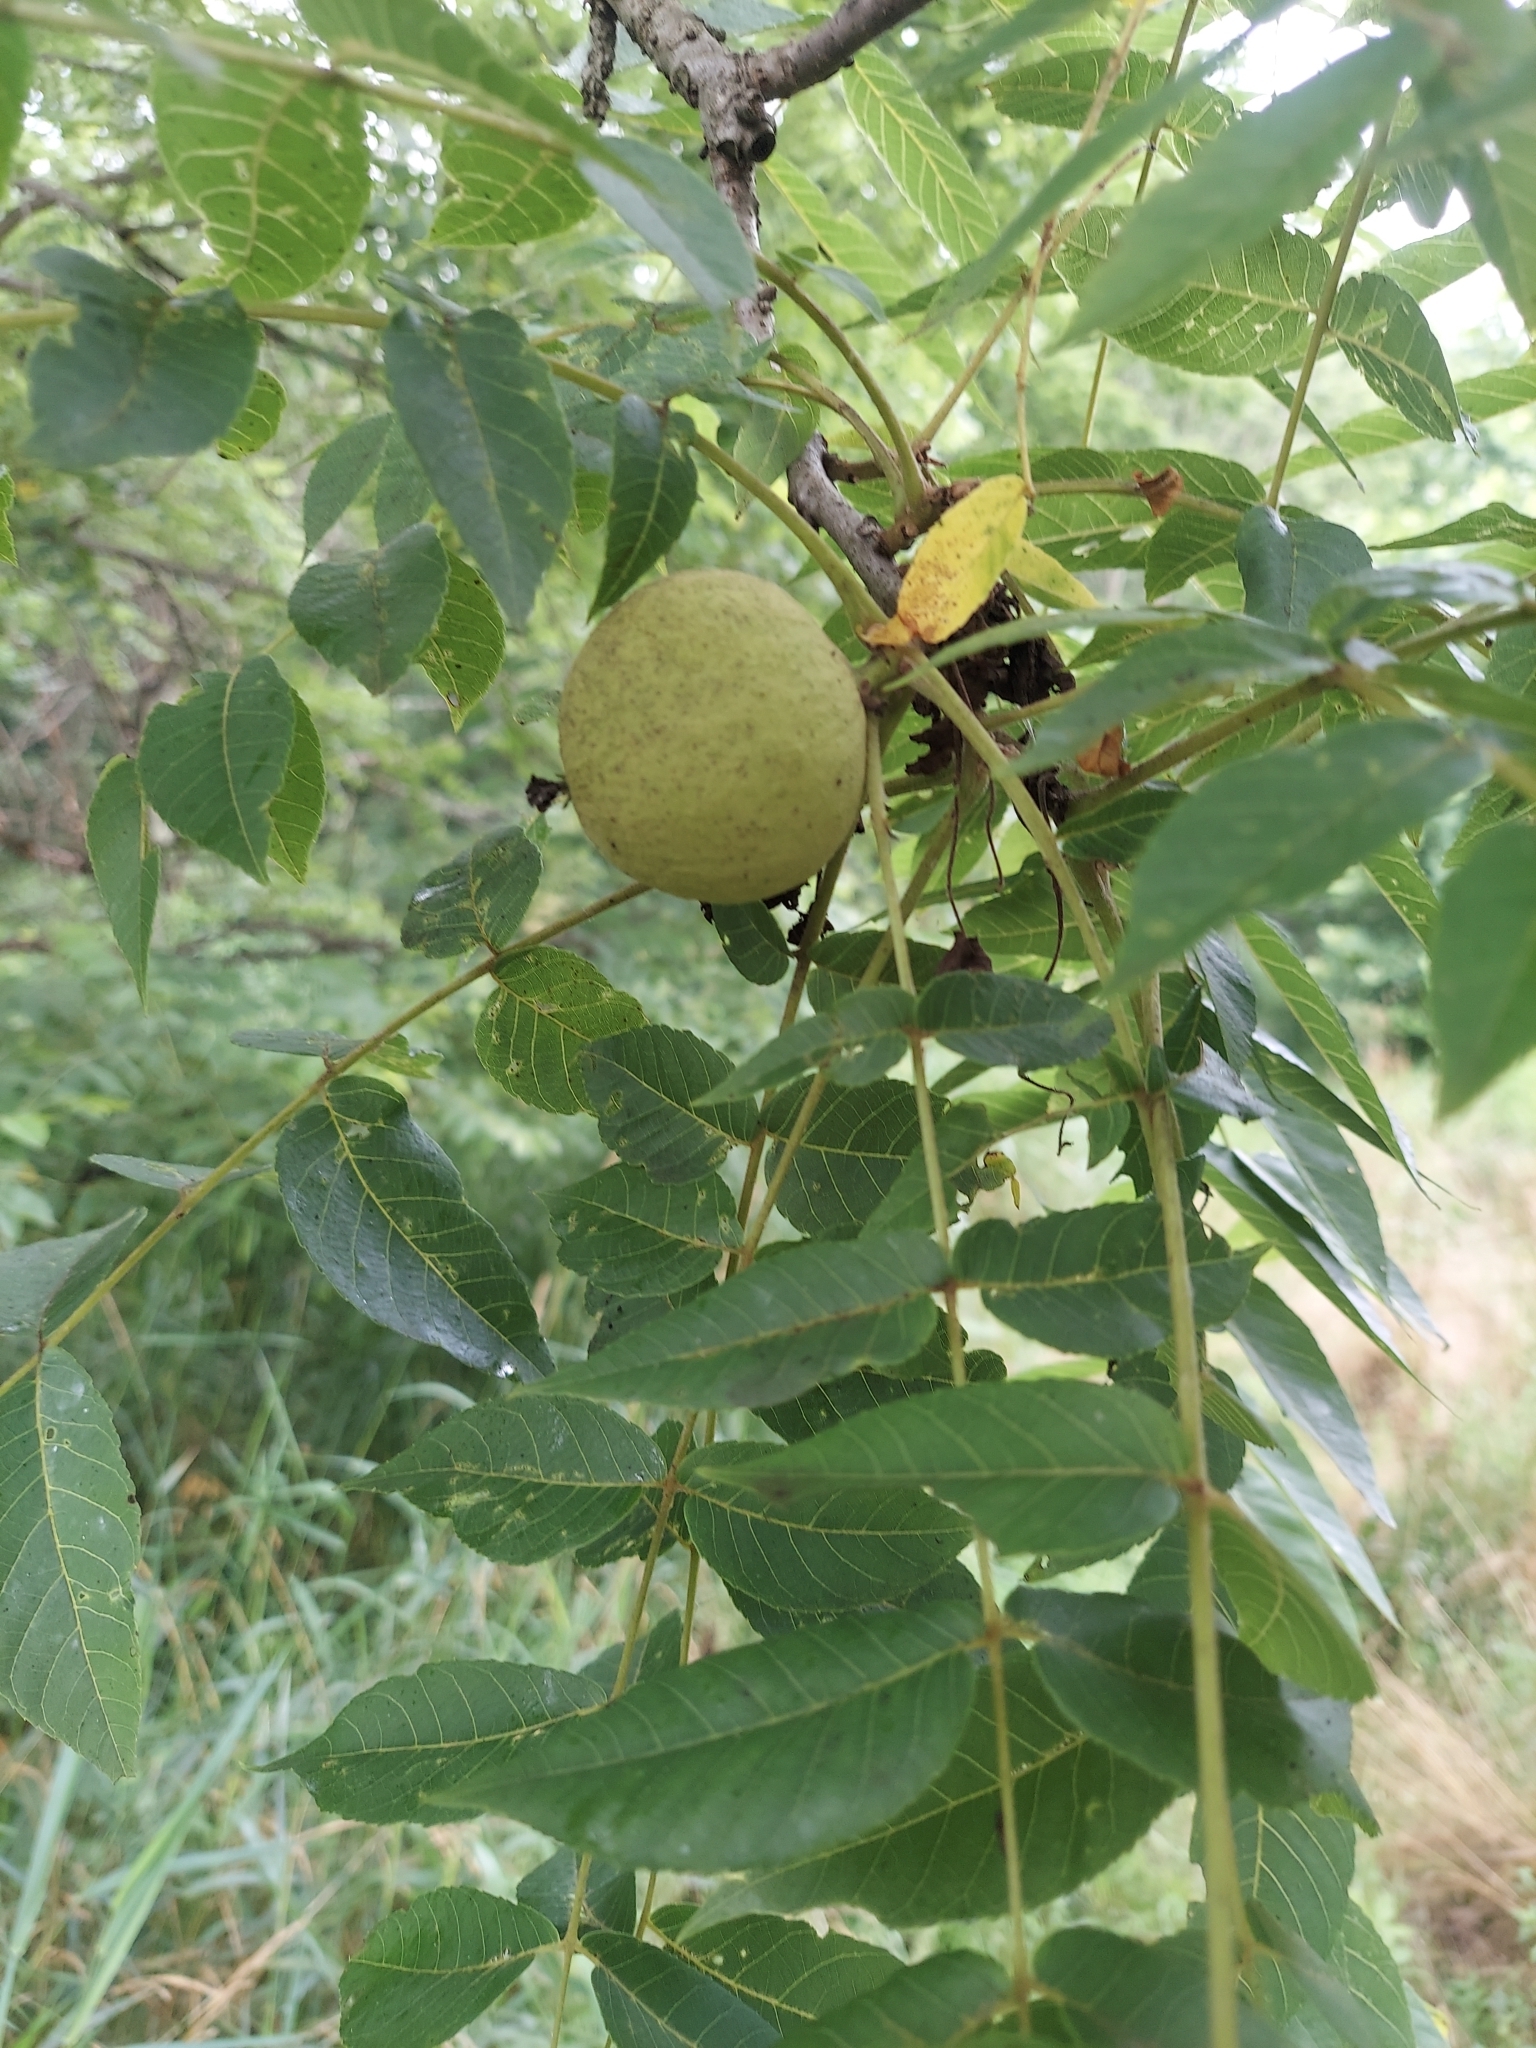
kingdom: Plantae
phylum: Tracheophyta
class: Magnoliopsida
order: Fagales
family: Juglandaceae
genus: Juglans
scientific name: Juglans nigra
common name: Black walnut
